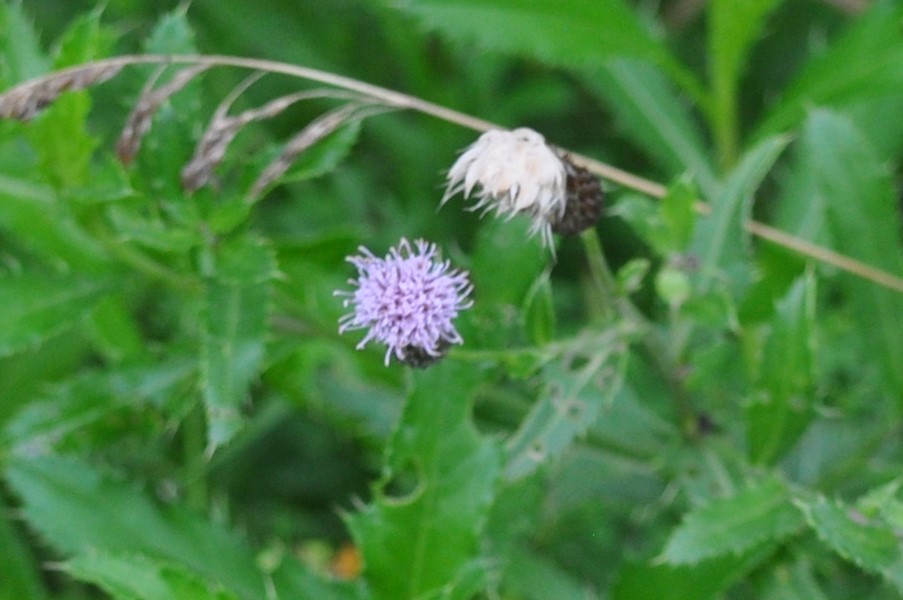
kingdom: Plantae
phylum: Tracheophyta
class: Magnoliopsida
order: Asterales
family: Asteraceae
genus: Cirsium
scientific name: Cirsium arvense
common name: Creeping thistle
